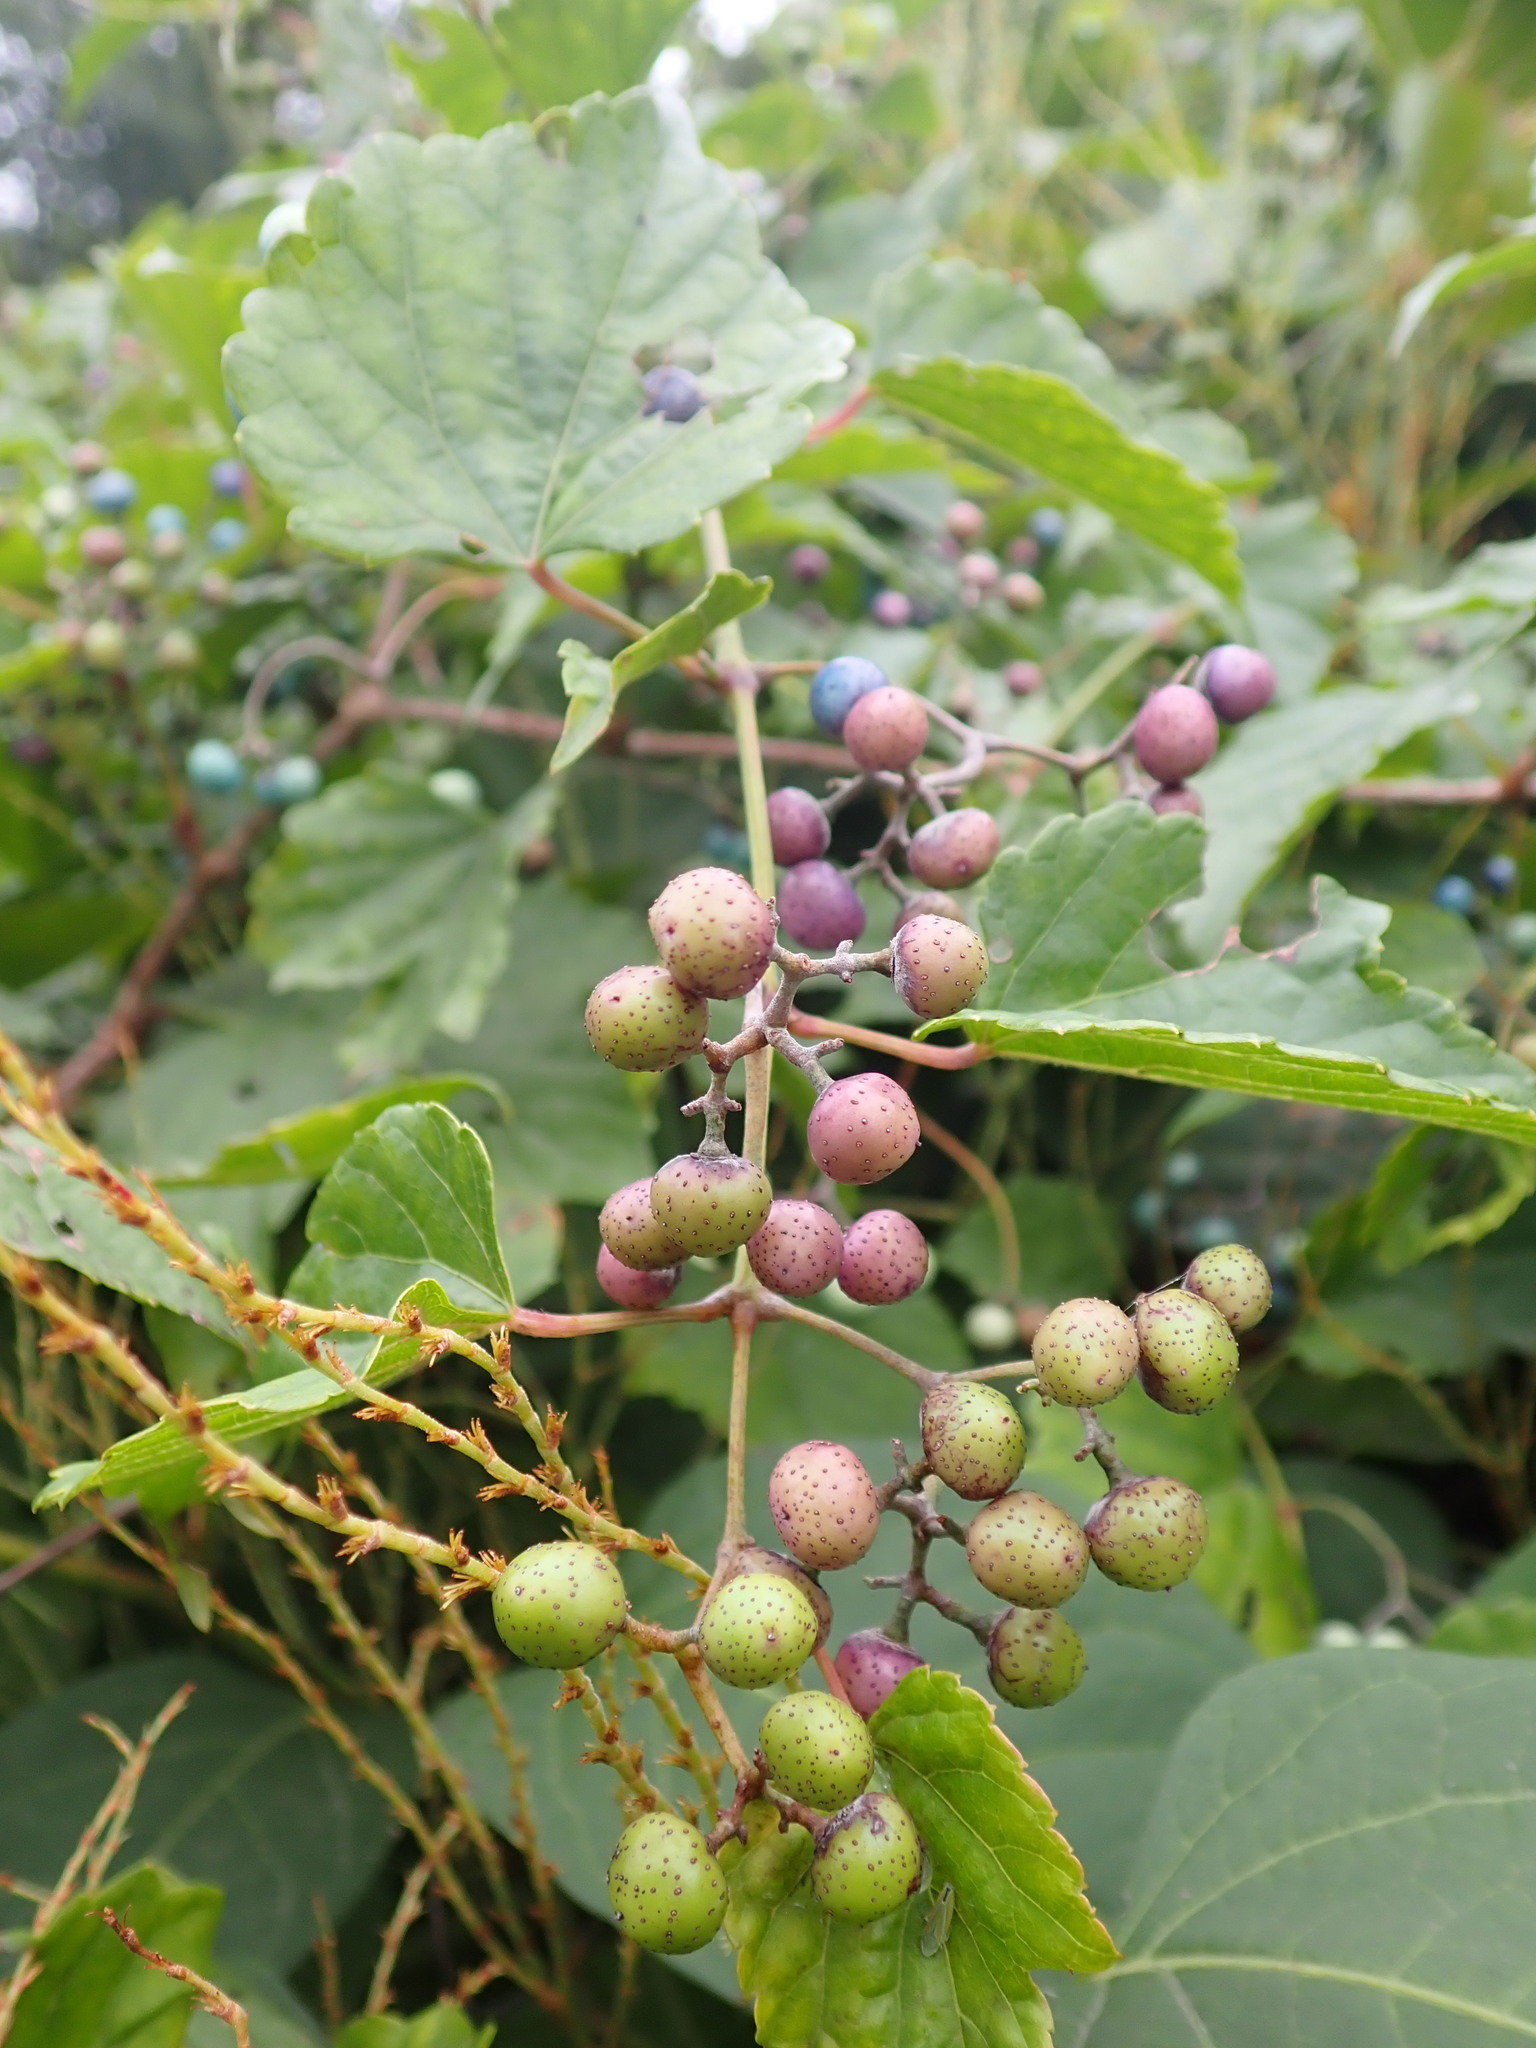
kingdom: Plantae
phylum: Tracheophyta
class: Magnoliopsida
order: Vitales
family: Vitaceae
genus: Ampelopsis
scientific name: Ampelopsis glandulosa
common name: Amur peppervine
